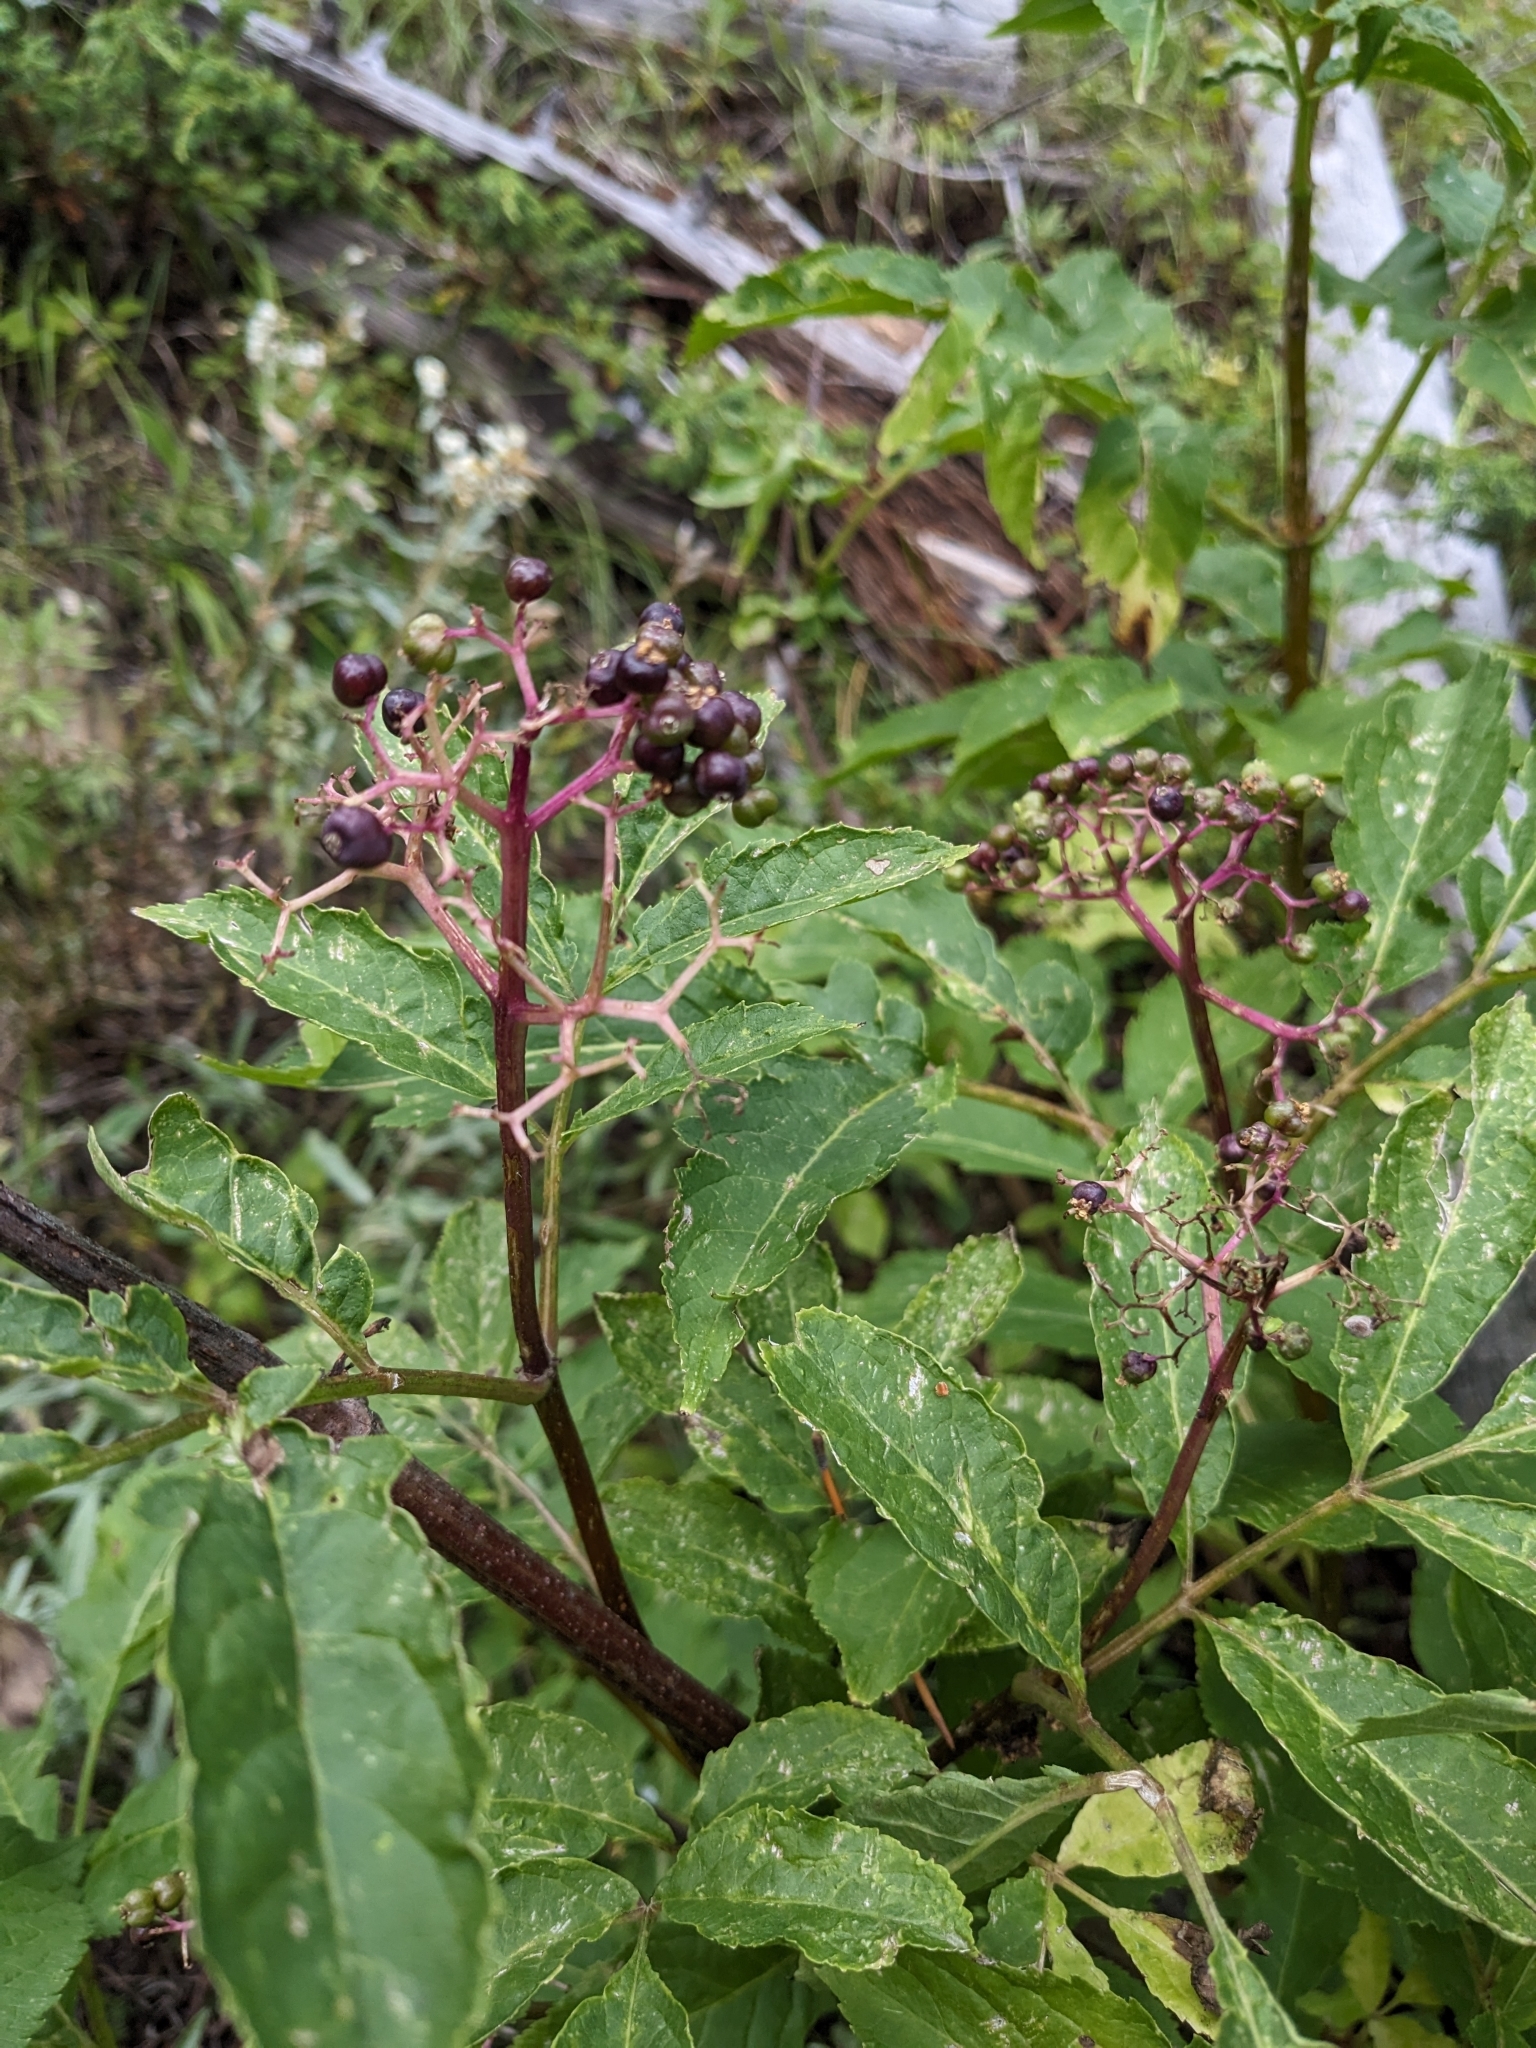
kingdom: Plantae
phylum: Tracheophyta
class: Magnoliopsida
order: Dipsacales
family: Viburnaceae
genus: Sambucus
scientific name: Sambucus racemosa
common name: Red-berried elder
